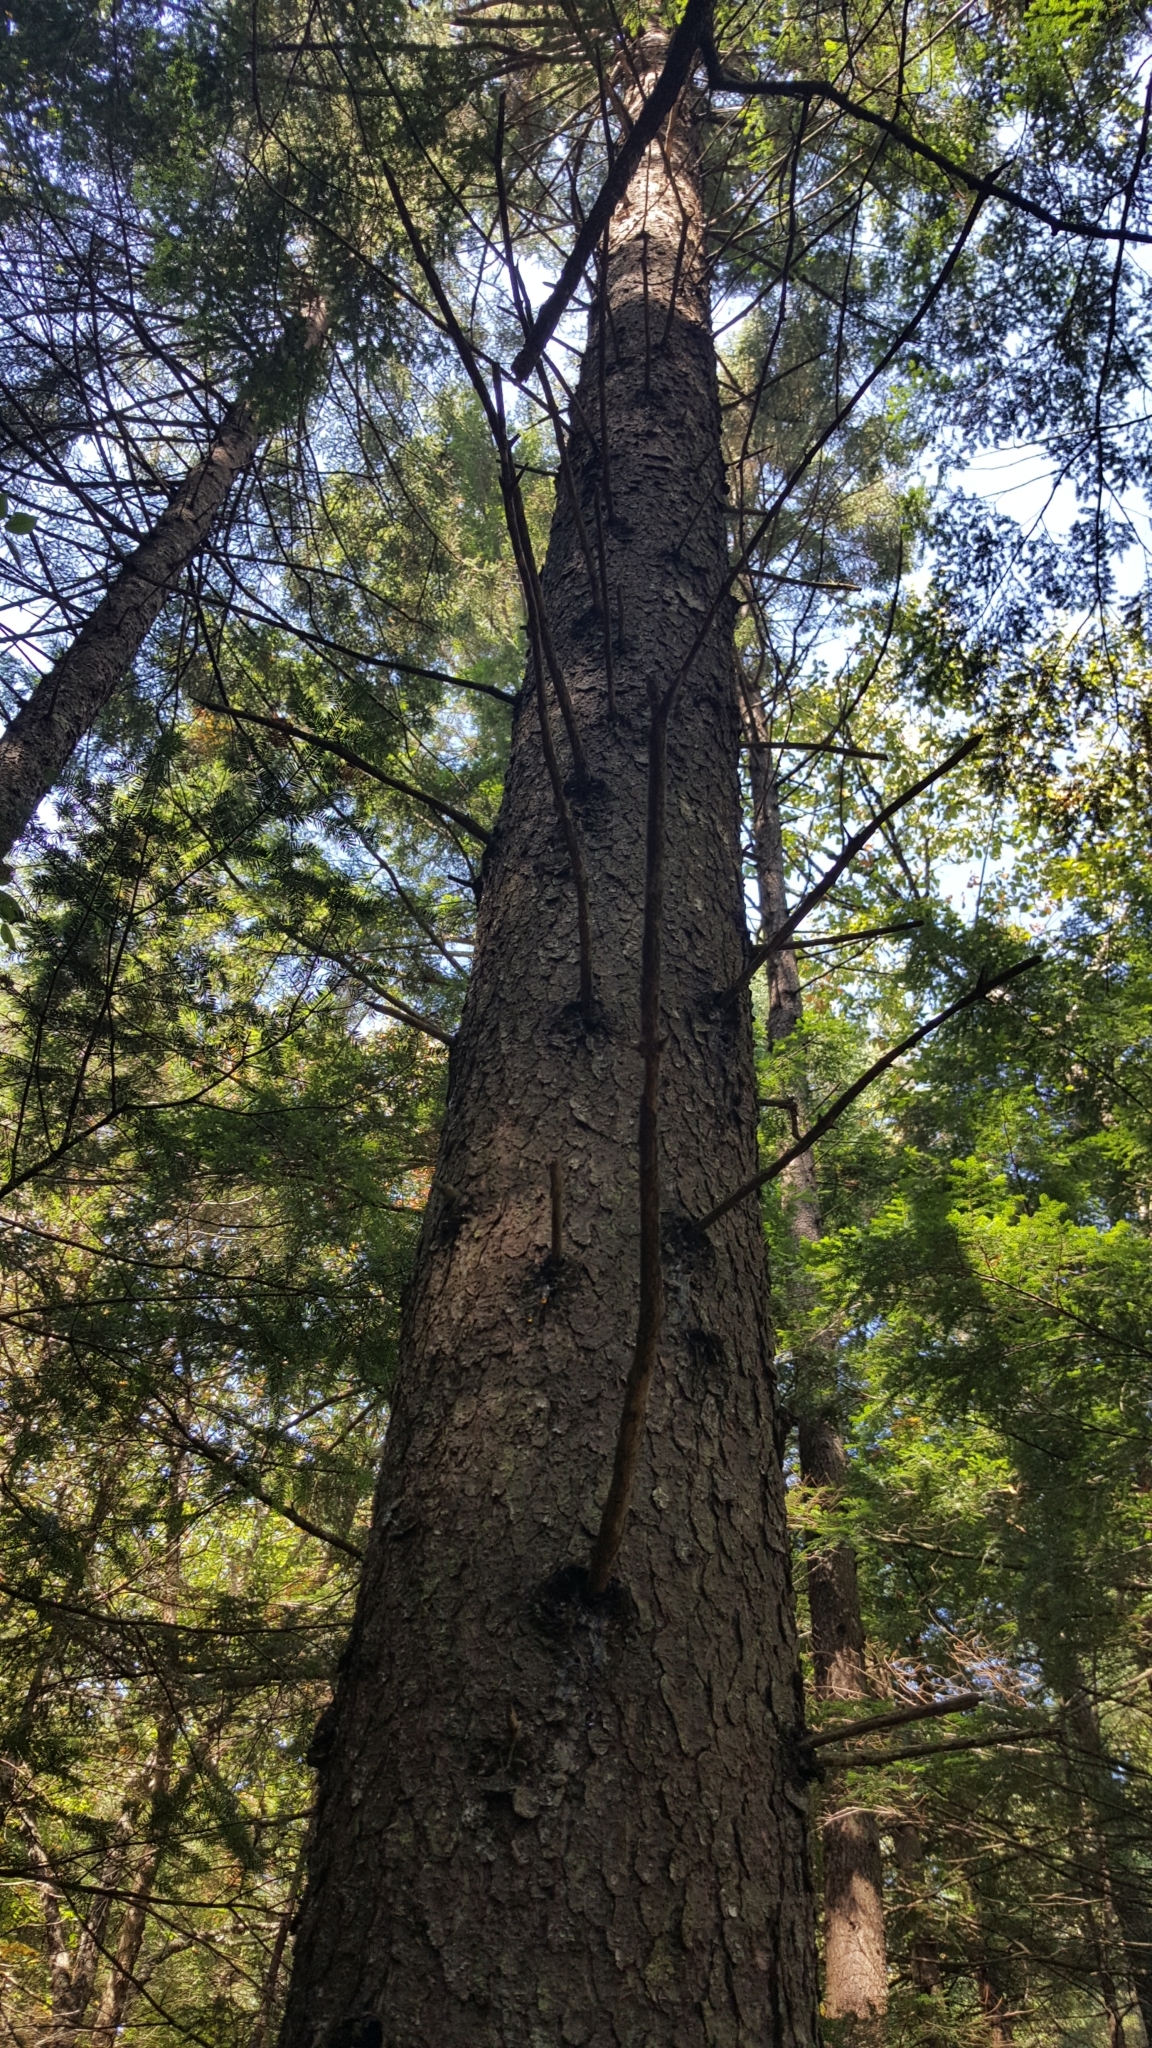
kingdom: Plantae
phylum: Tracheophyta
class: Pinopsida
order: Pinales
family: Pinaceae
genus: Picea
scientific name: Picea rubens
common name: Red spruce
